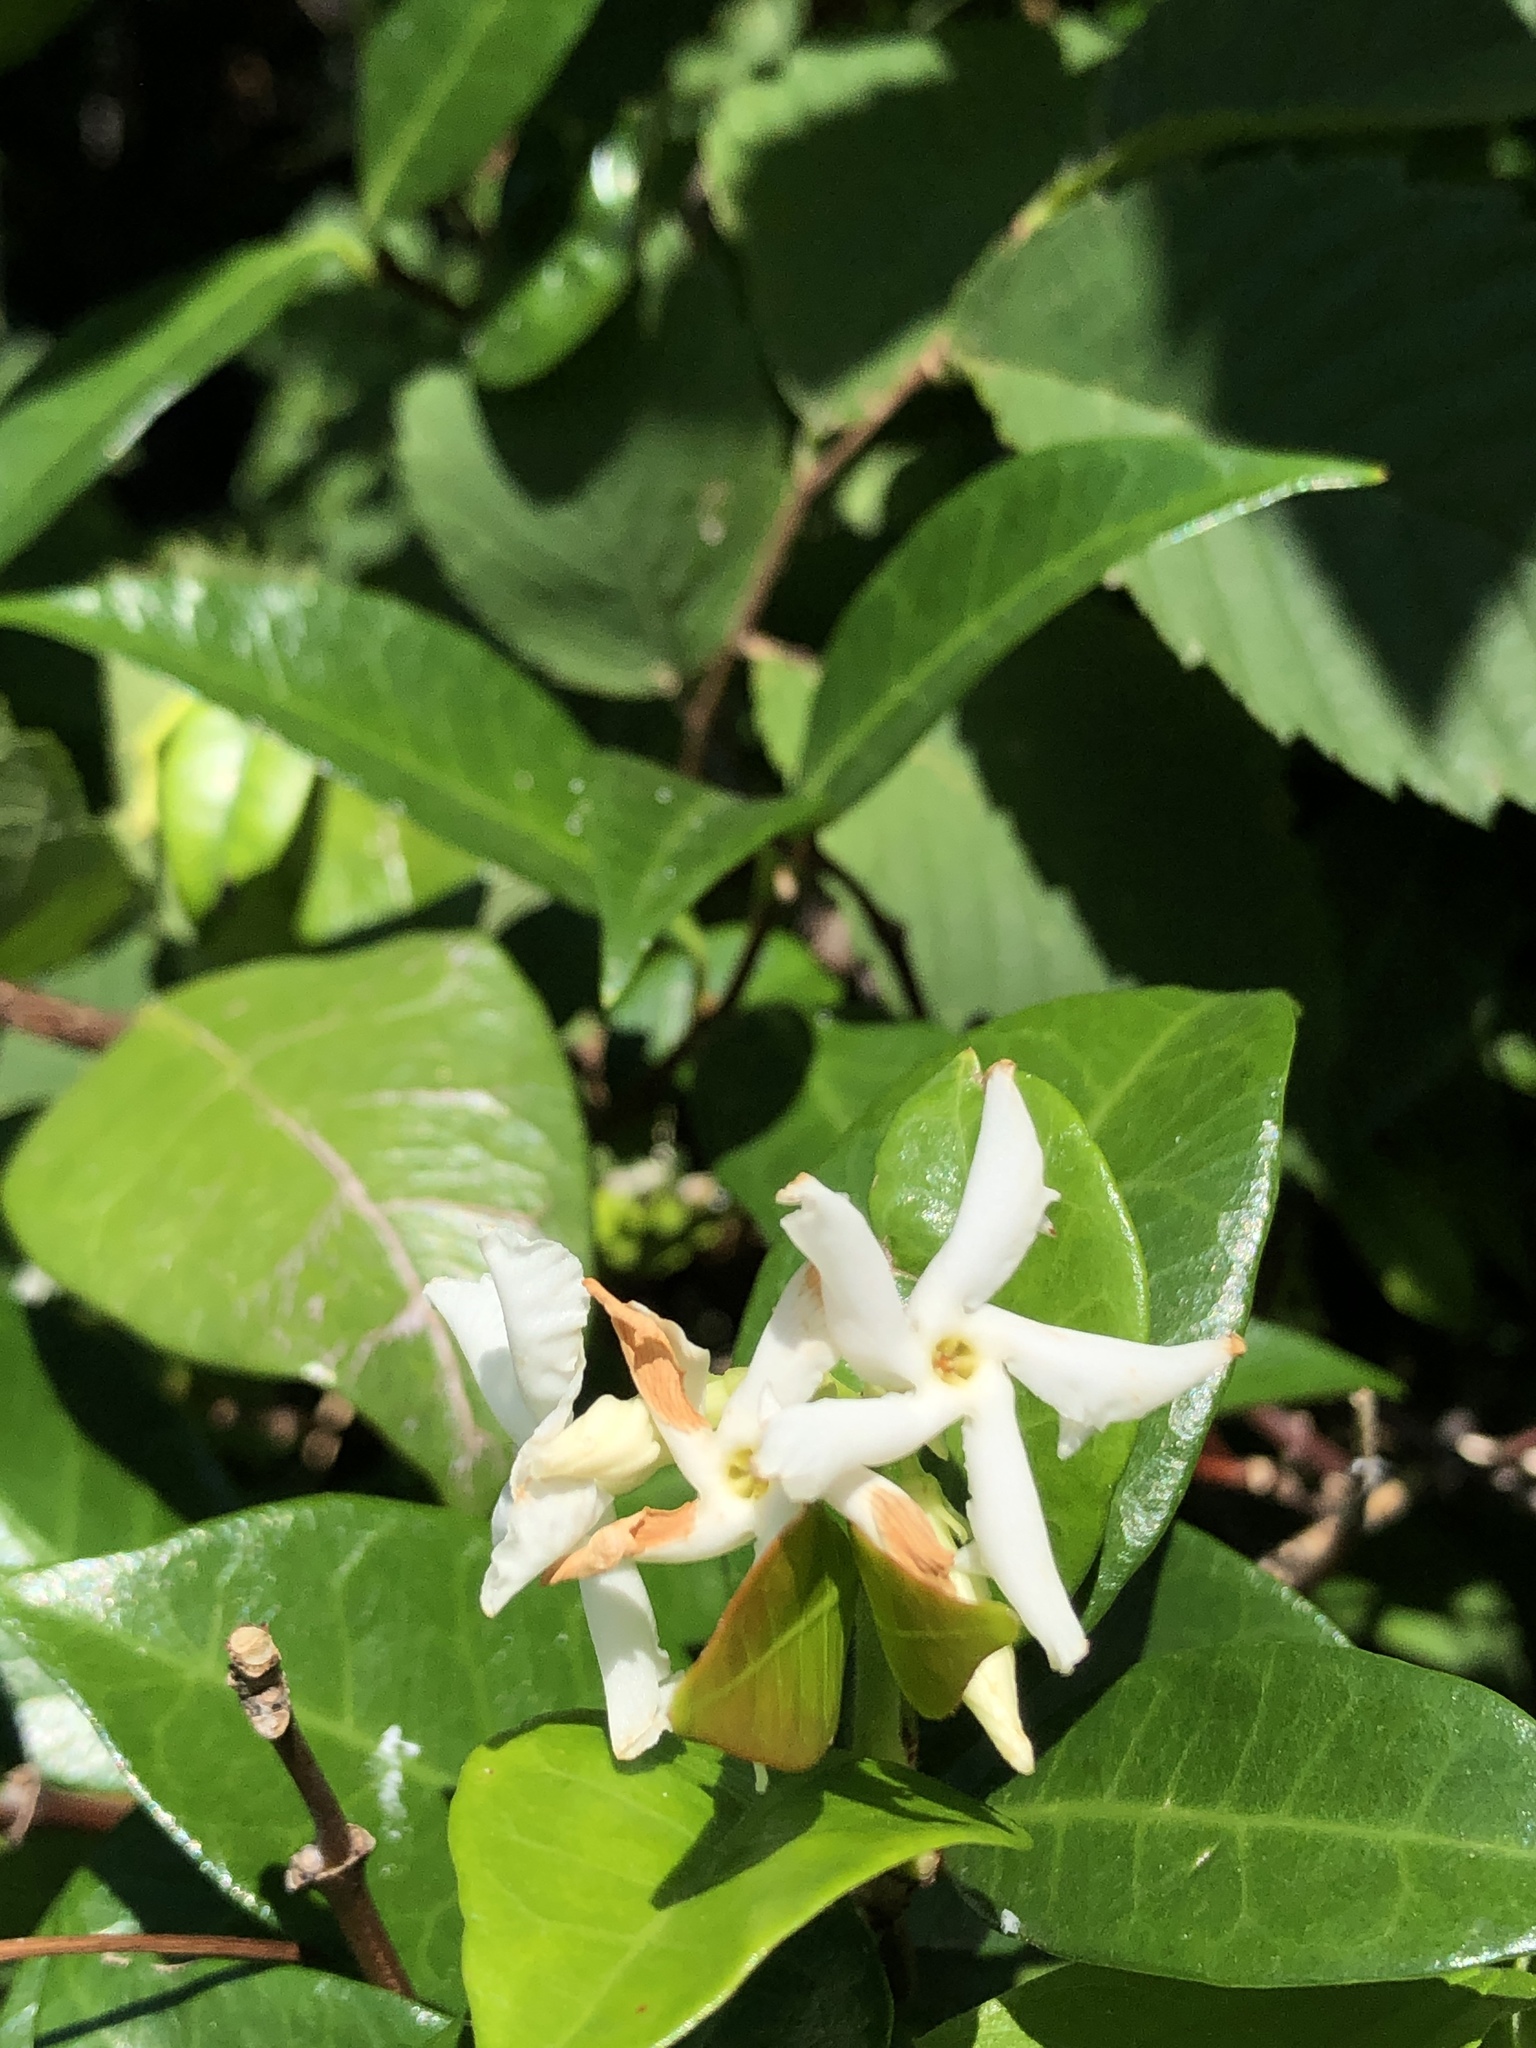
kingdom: Plantae
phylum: Tracheophyta
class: Magnoliopsida
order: Gentianales
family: Apocynaceae
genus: Trachelospermum
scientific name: Trachelospermum jasminoides
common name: Confederate jasmine
